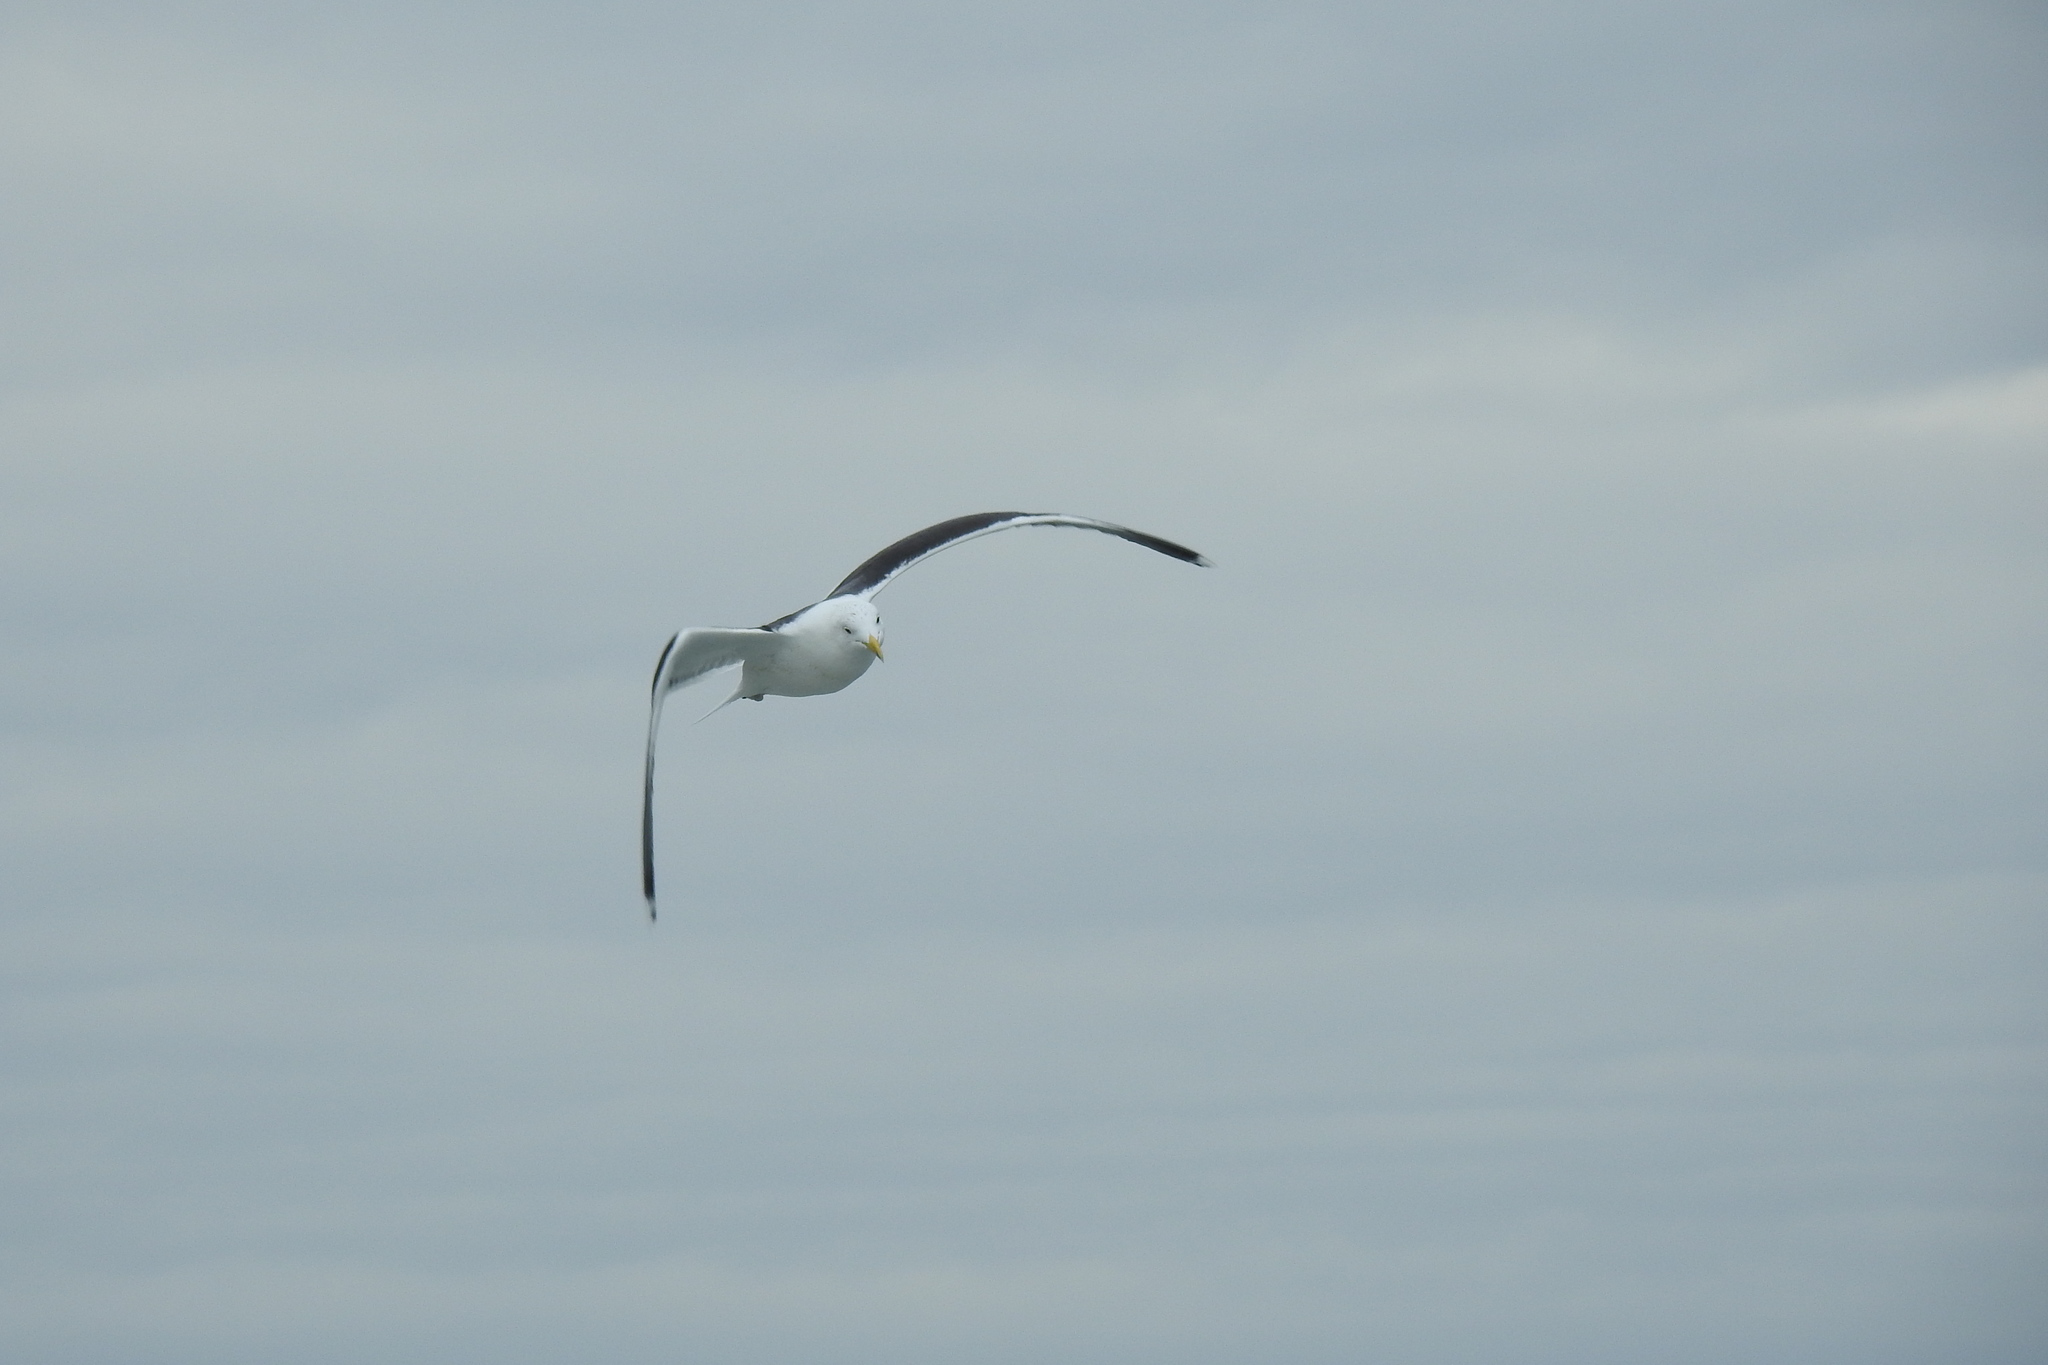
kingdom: Animalia
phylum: Chordata
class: Aves
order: Charadriiformes
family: Laridae
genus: Larus
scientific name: Larus marinus
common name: Great black-backed gull
